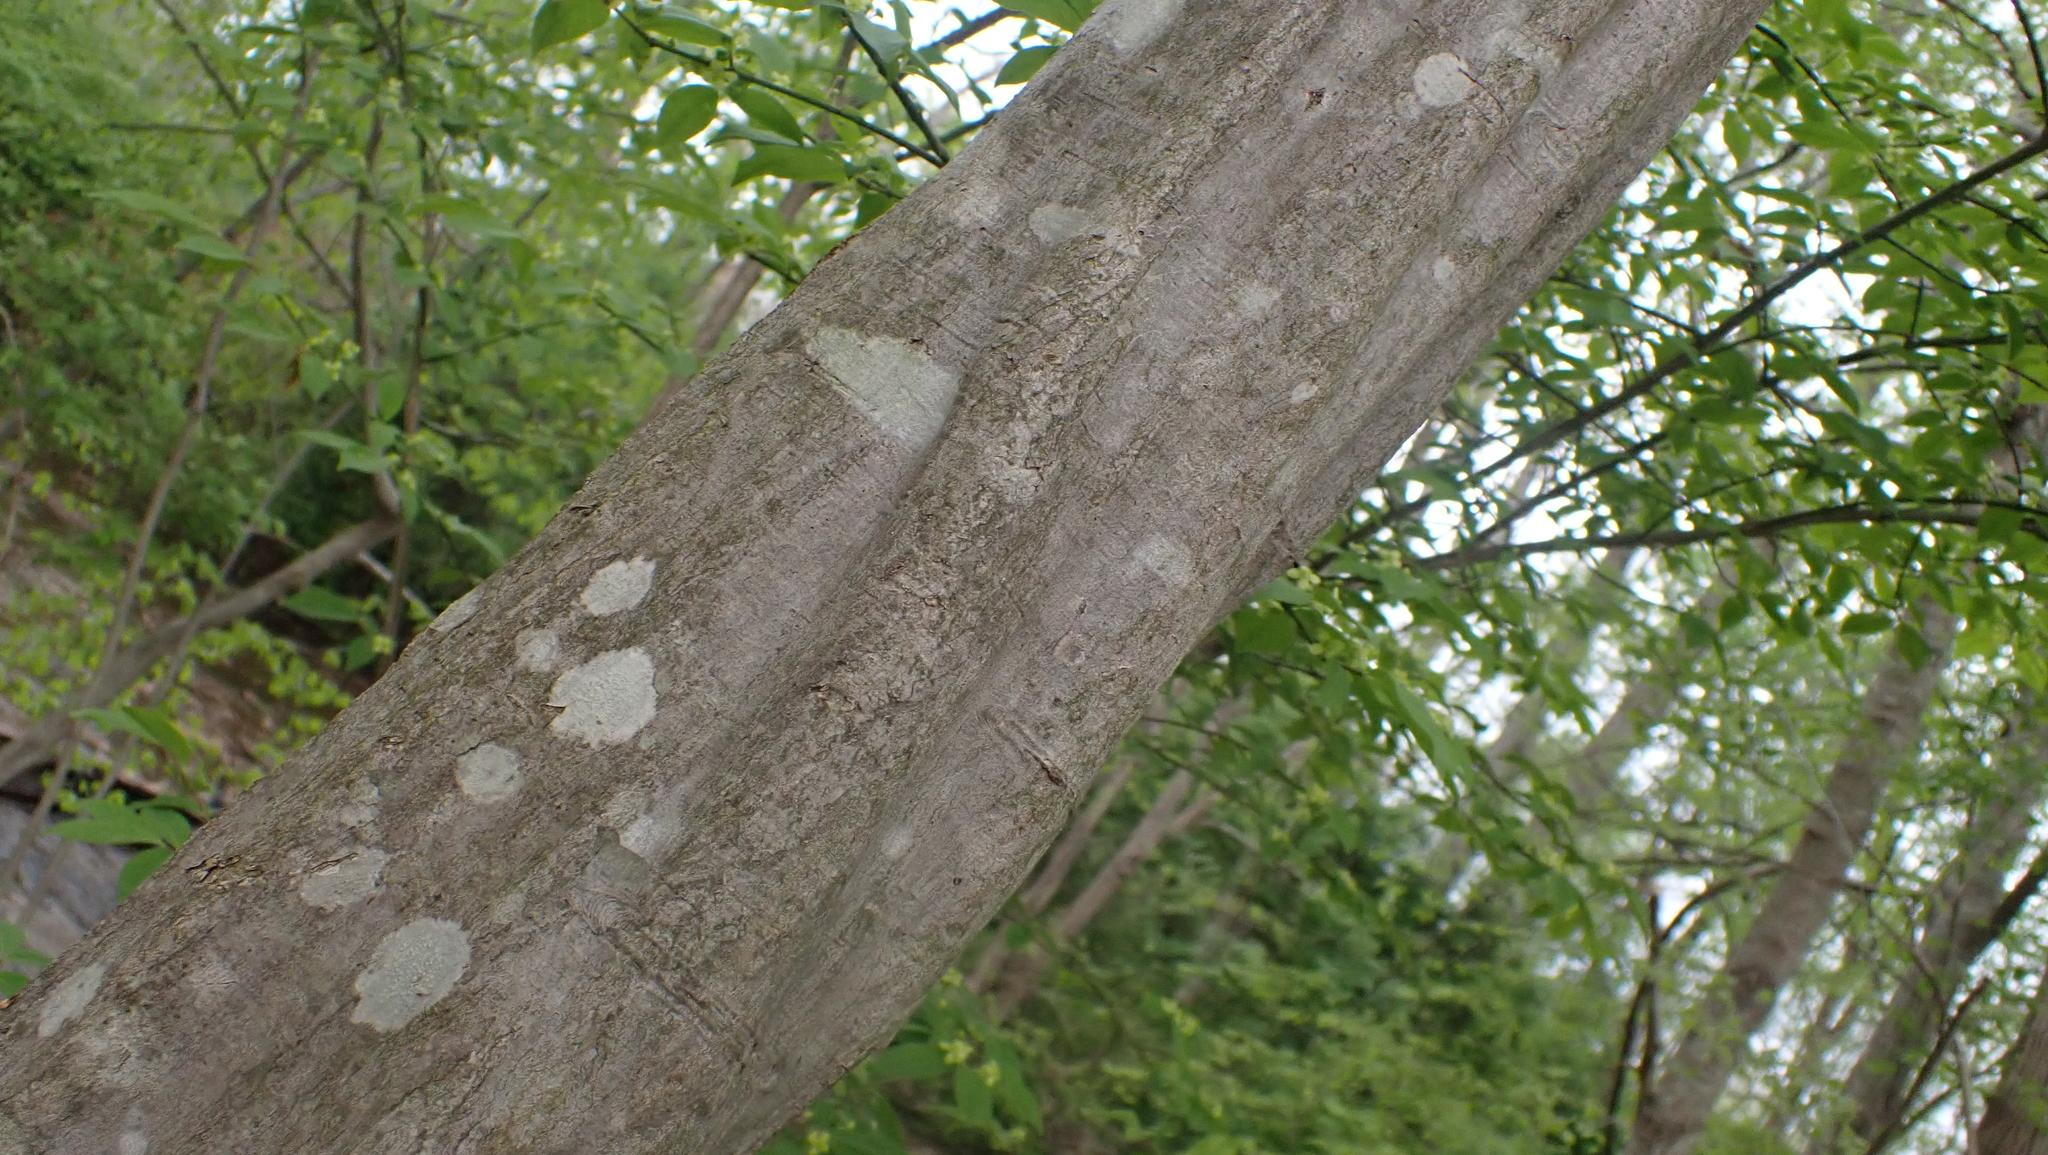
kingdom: Plantae
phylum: Tracheophyta
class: Magnoliopsida
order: Fagales
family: Betulaceae
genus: Carpinus
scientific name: Carpinus caroliniana
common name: American hornbeam
